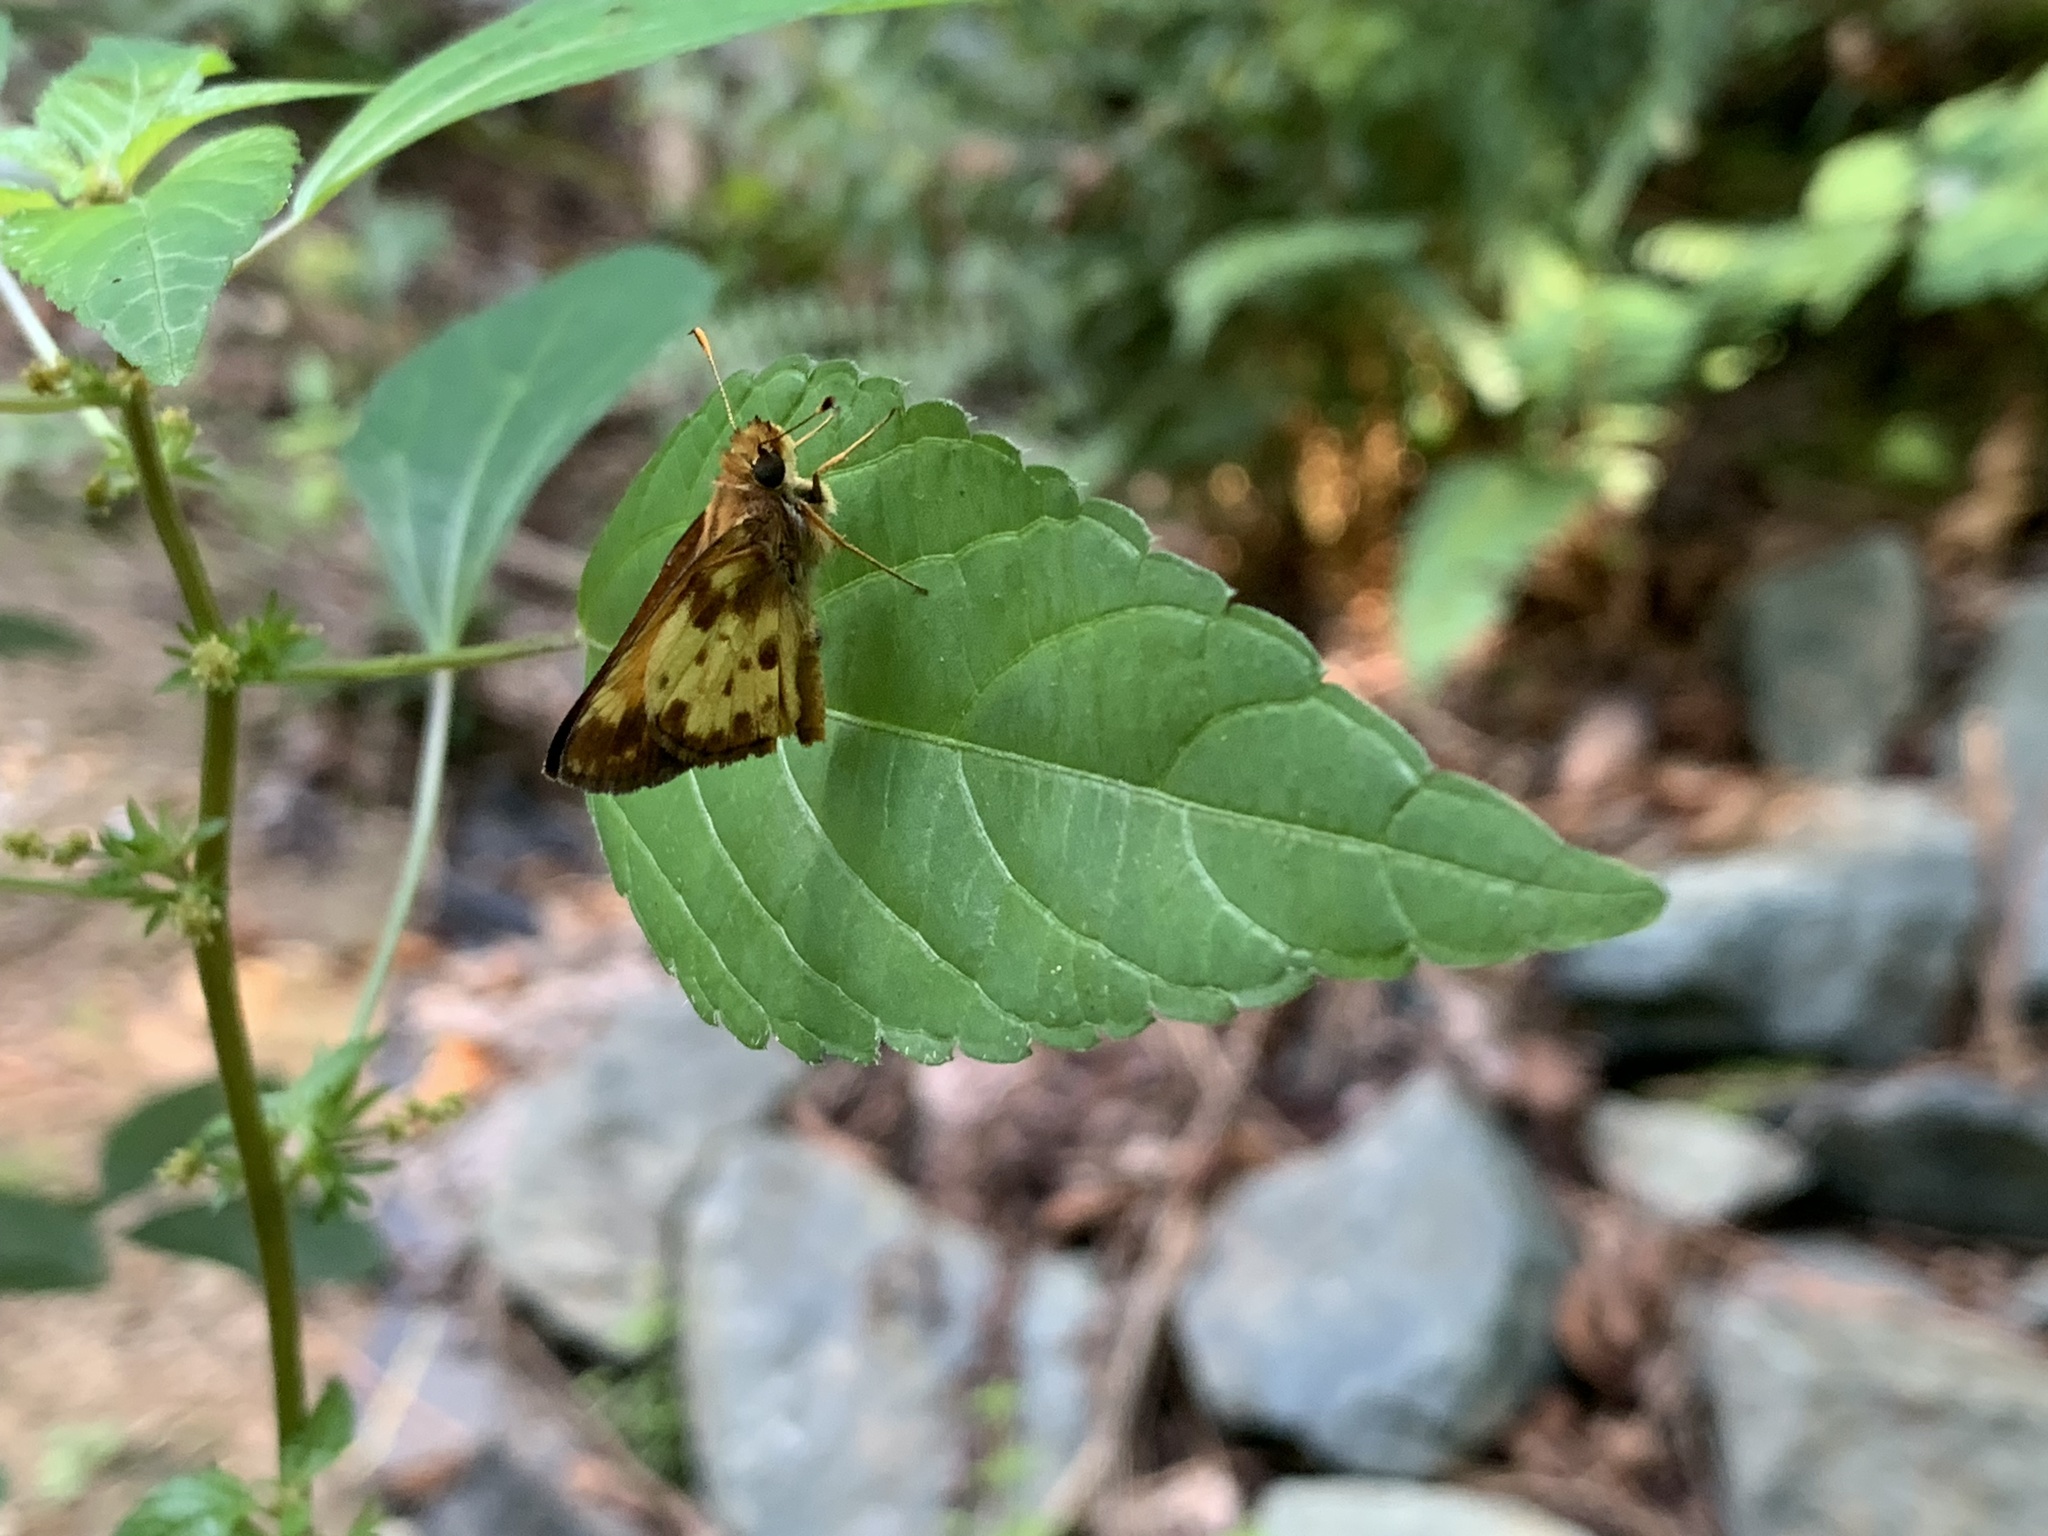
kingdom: Animalia
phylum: Arthropoda
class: Insecta
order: Lepidoptera
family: Hesperiidae
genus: Lon
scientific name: Lon zabulon
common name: Zabulon skipper
